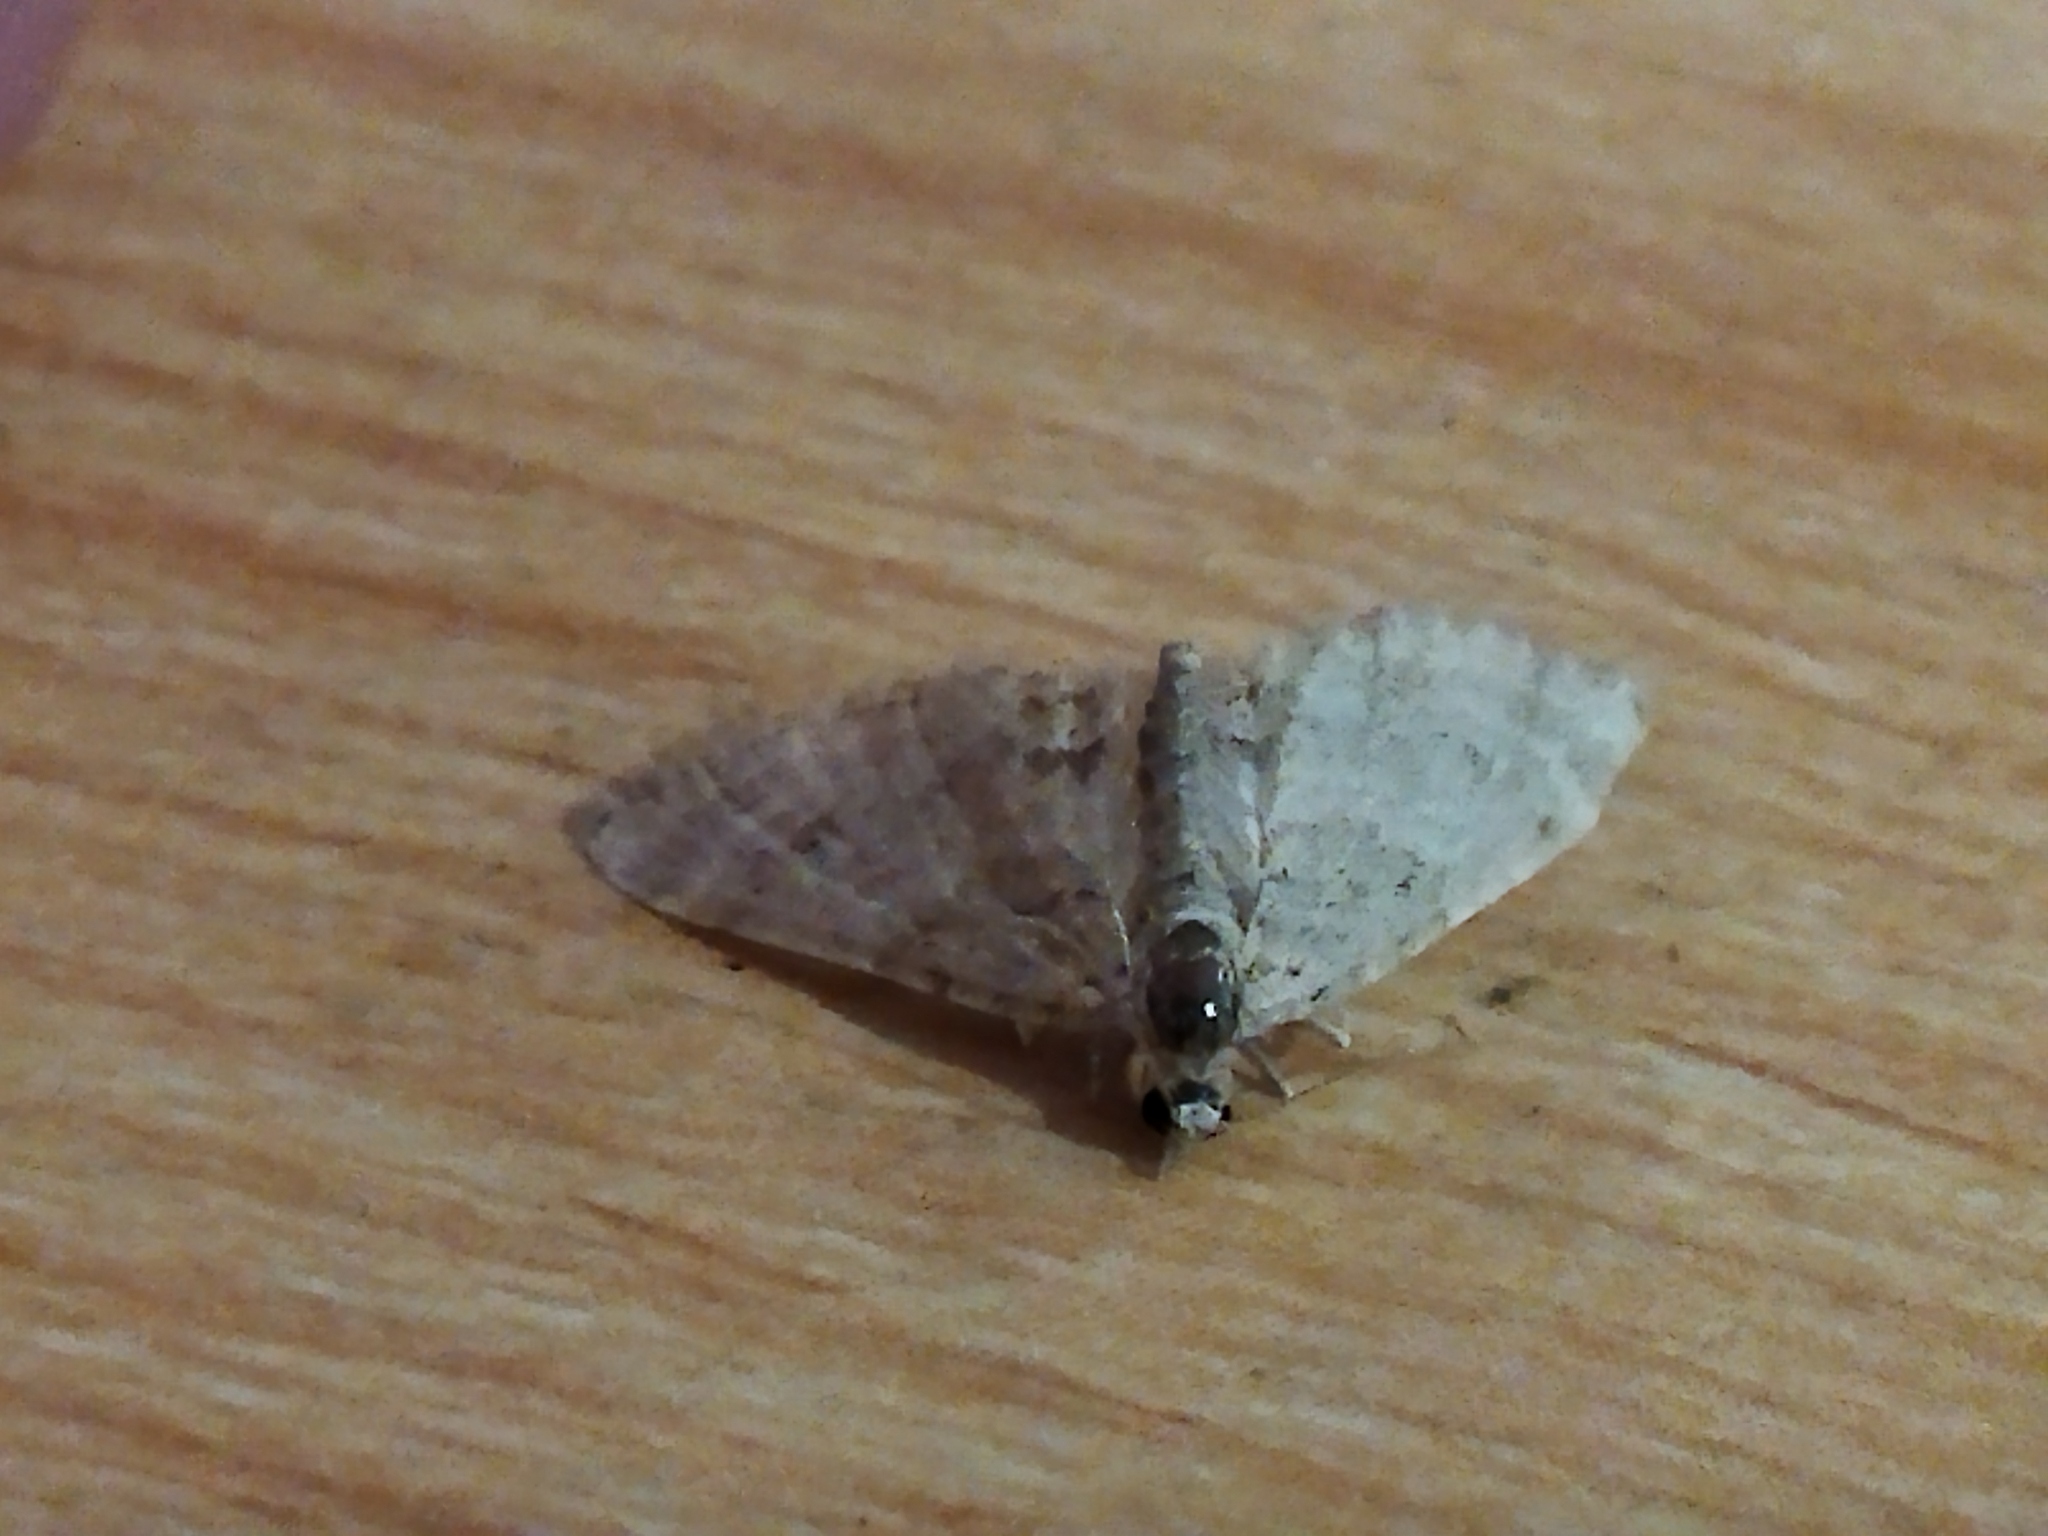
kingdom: Animalia
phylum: Arthropoda
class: Insecta
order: Lepidoptera
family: Geometridae
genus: Gymnoscelis
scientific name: Gymnoscelis rufifasciata
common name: Double-striped pug
